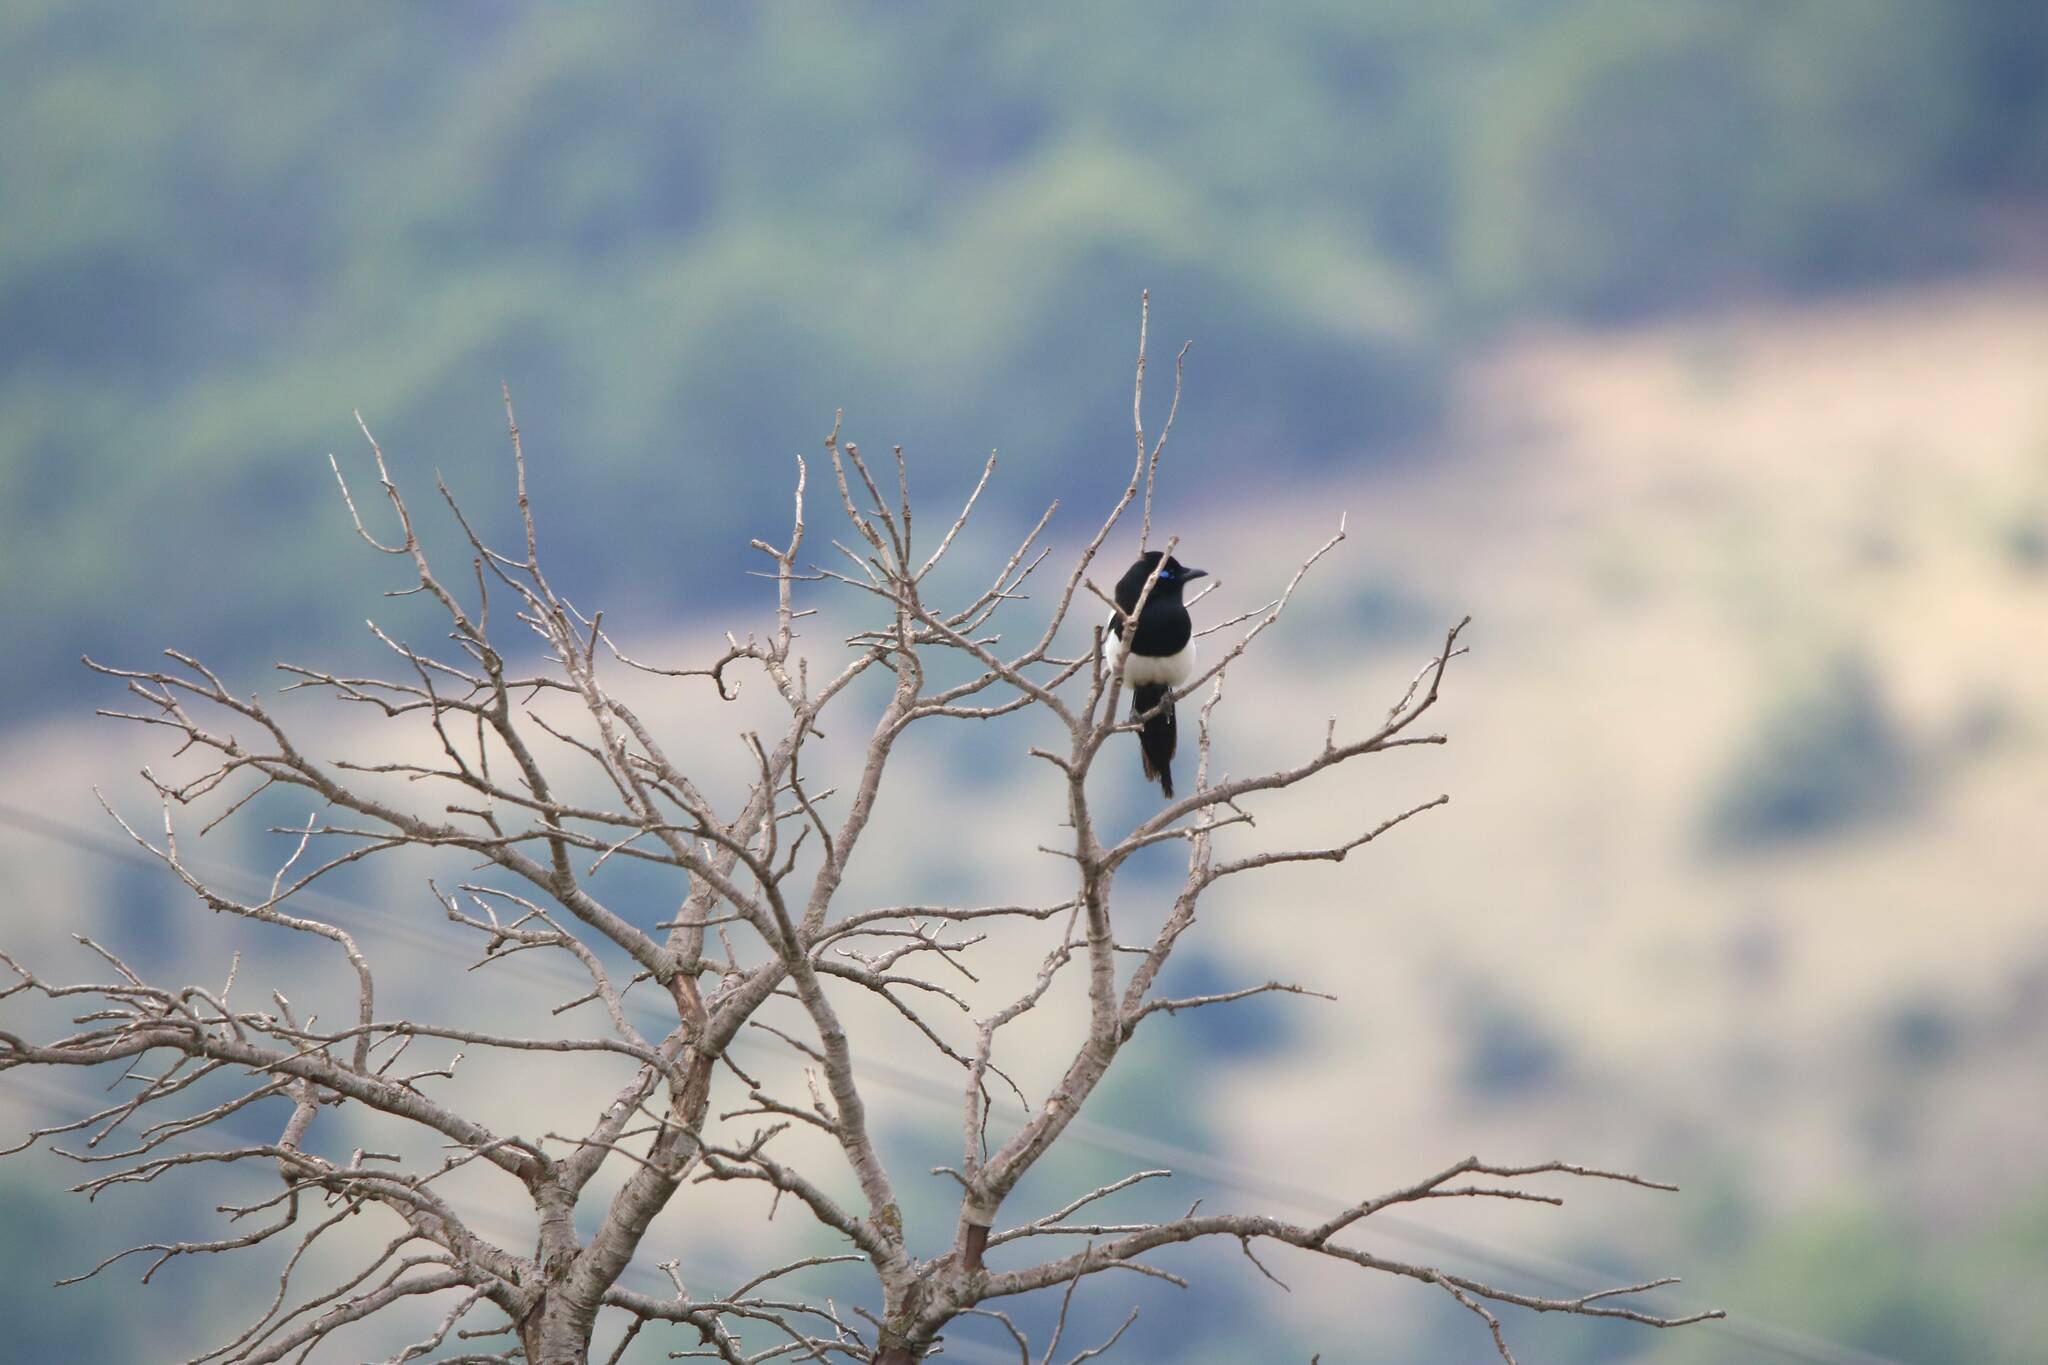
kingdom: Animalia
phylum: Chordata
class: Aves
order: Passeriformes
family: Corvidae
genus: Pica
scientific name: Pica mauritanica
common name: Maghreb magpie
